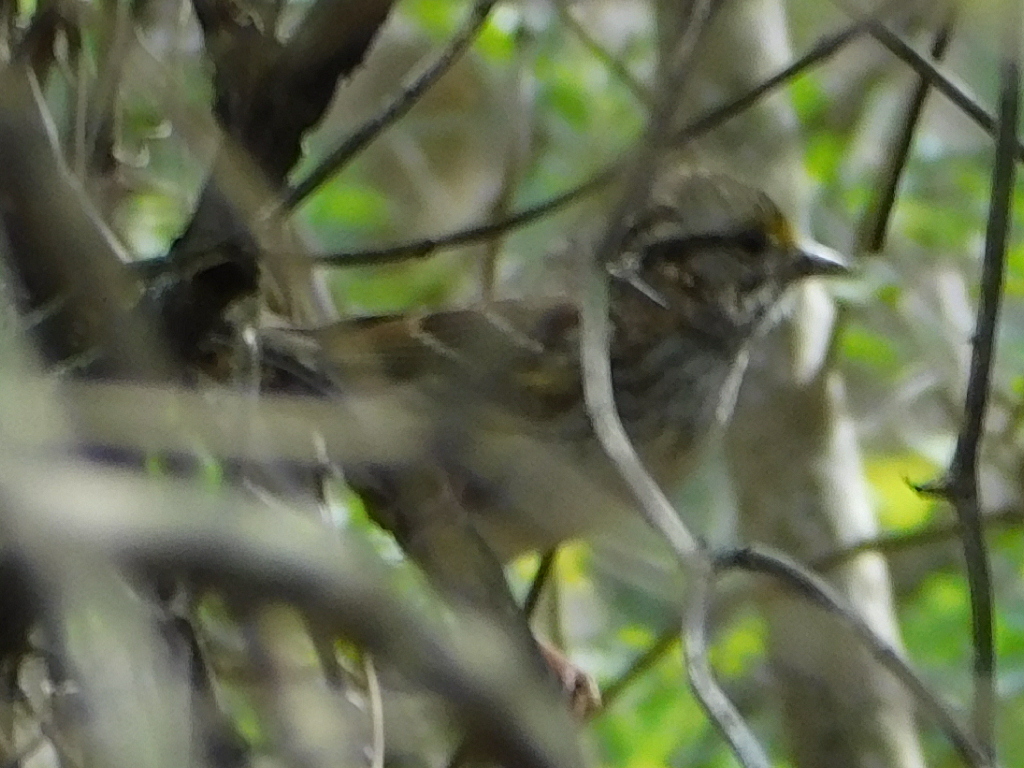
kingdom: Animalia
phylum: Chordata
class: Aves
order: Passeriformes
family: Passerellidae
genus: Zonotrichia
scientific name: Zonotrichia albicollis
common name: White-throated sparrow
